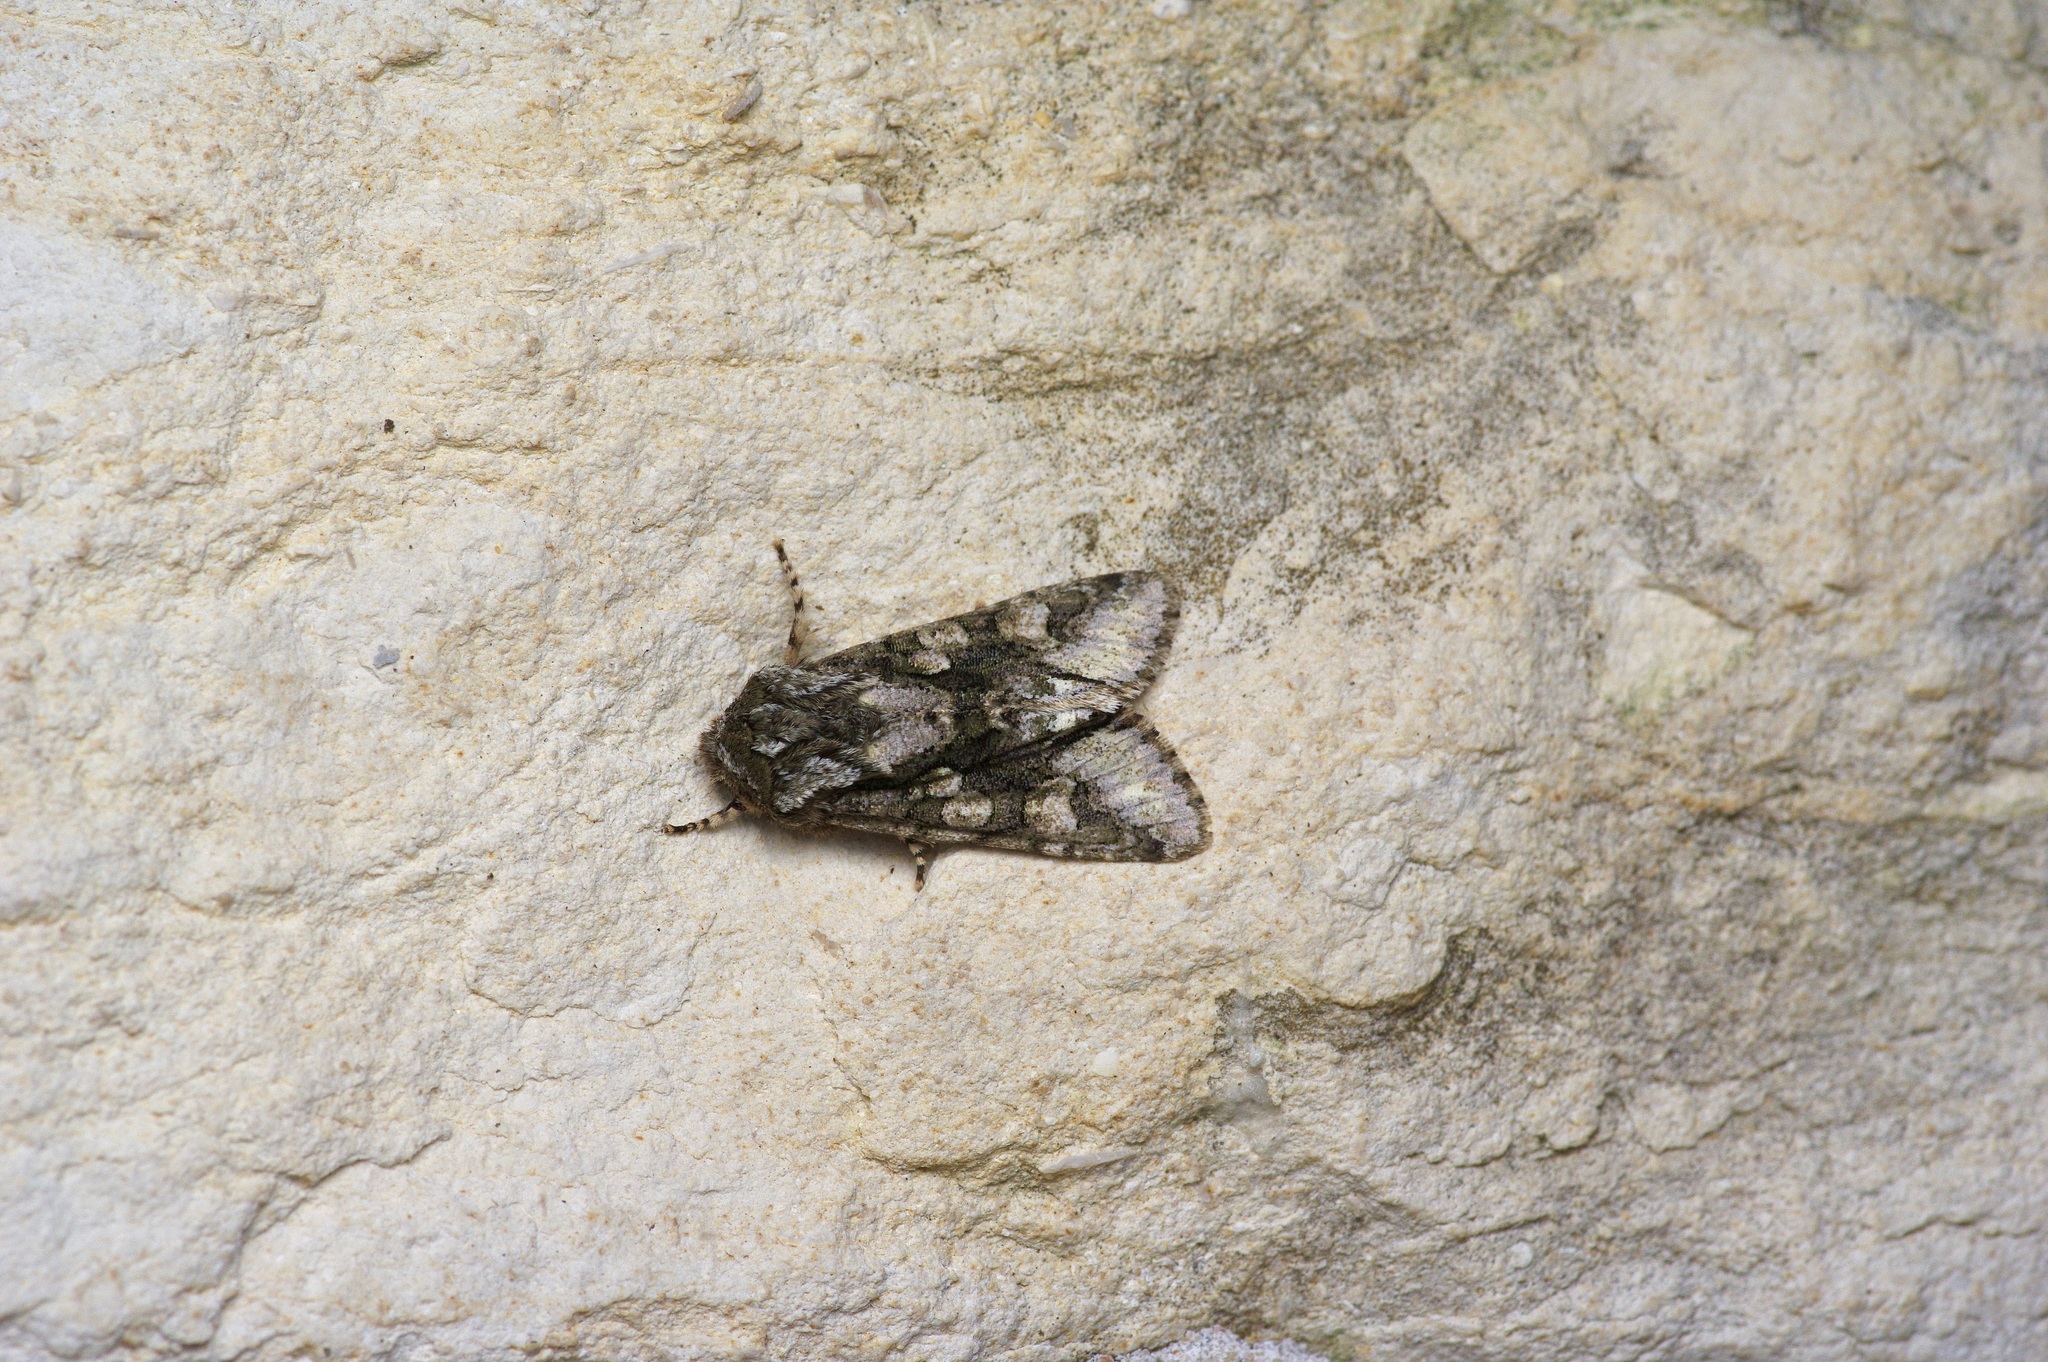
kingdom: Animalia
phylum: Arthropoda
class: Insecta
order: Lepidoptera
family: Noctuidae
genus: Psaphida
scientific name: Psaphida resumens
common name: Figure-eight sallow
